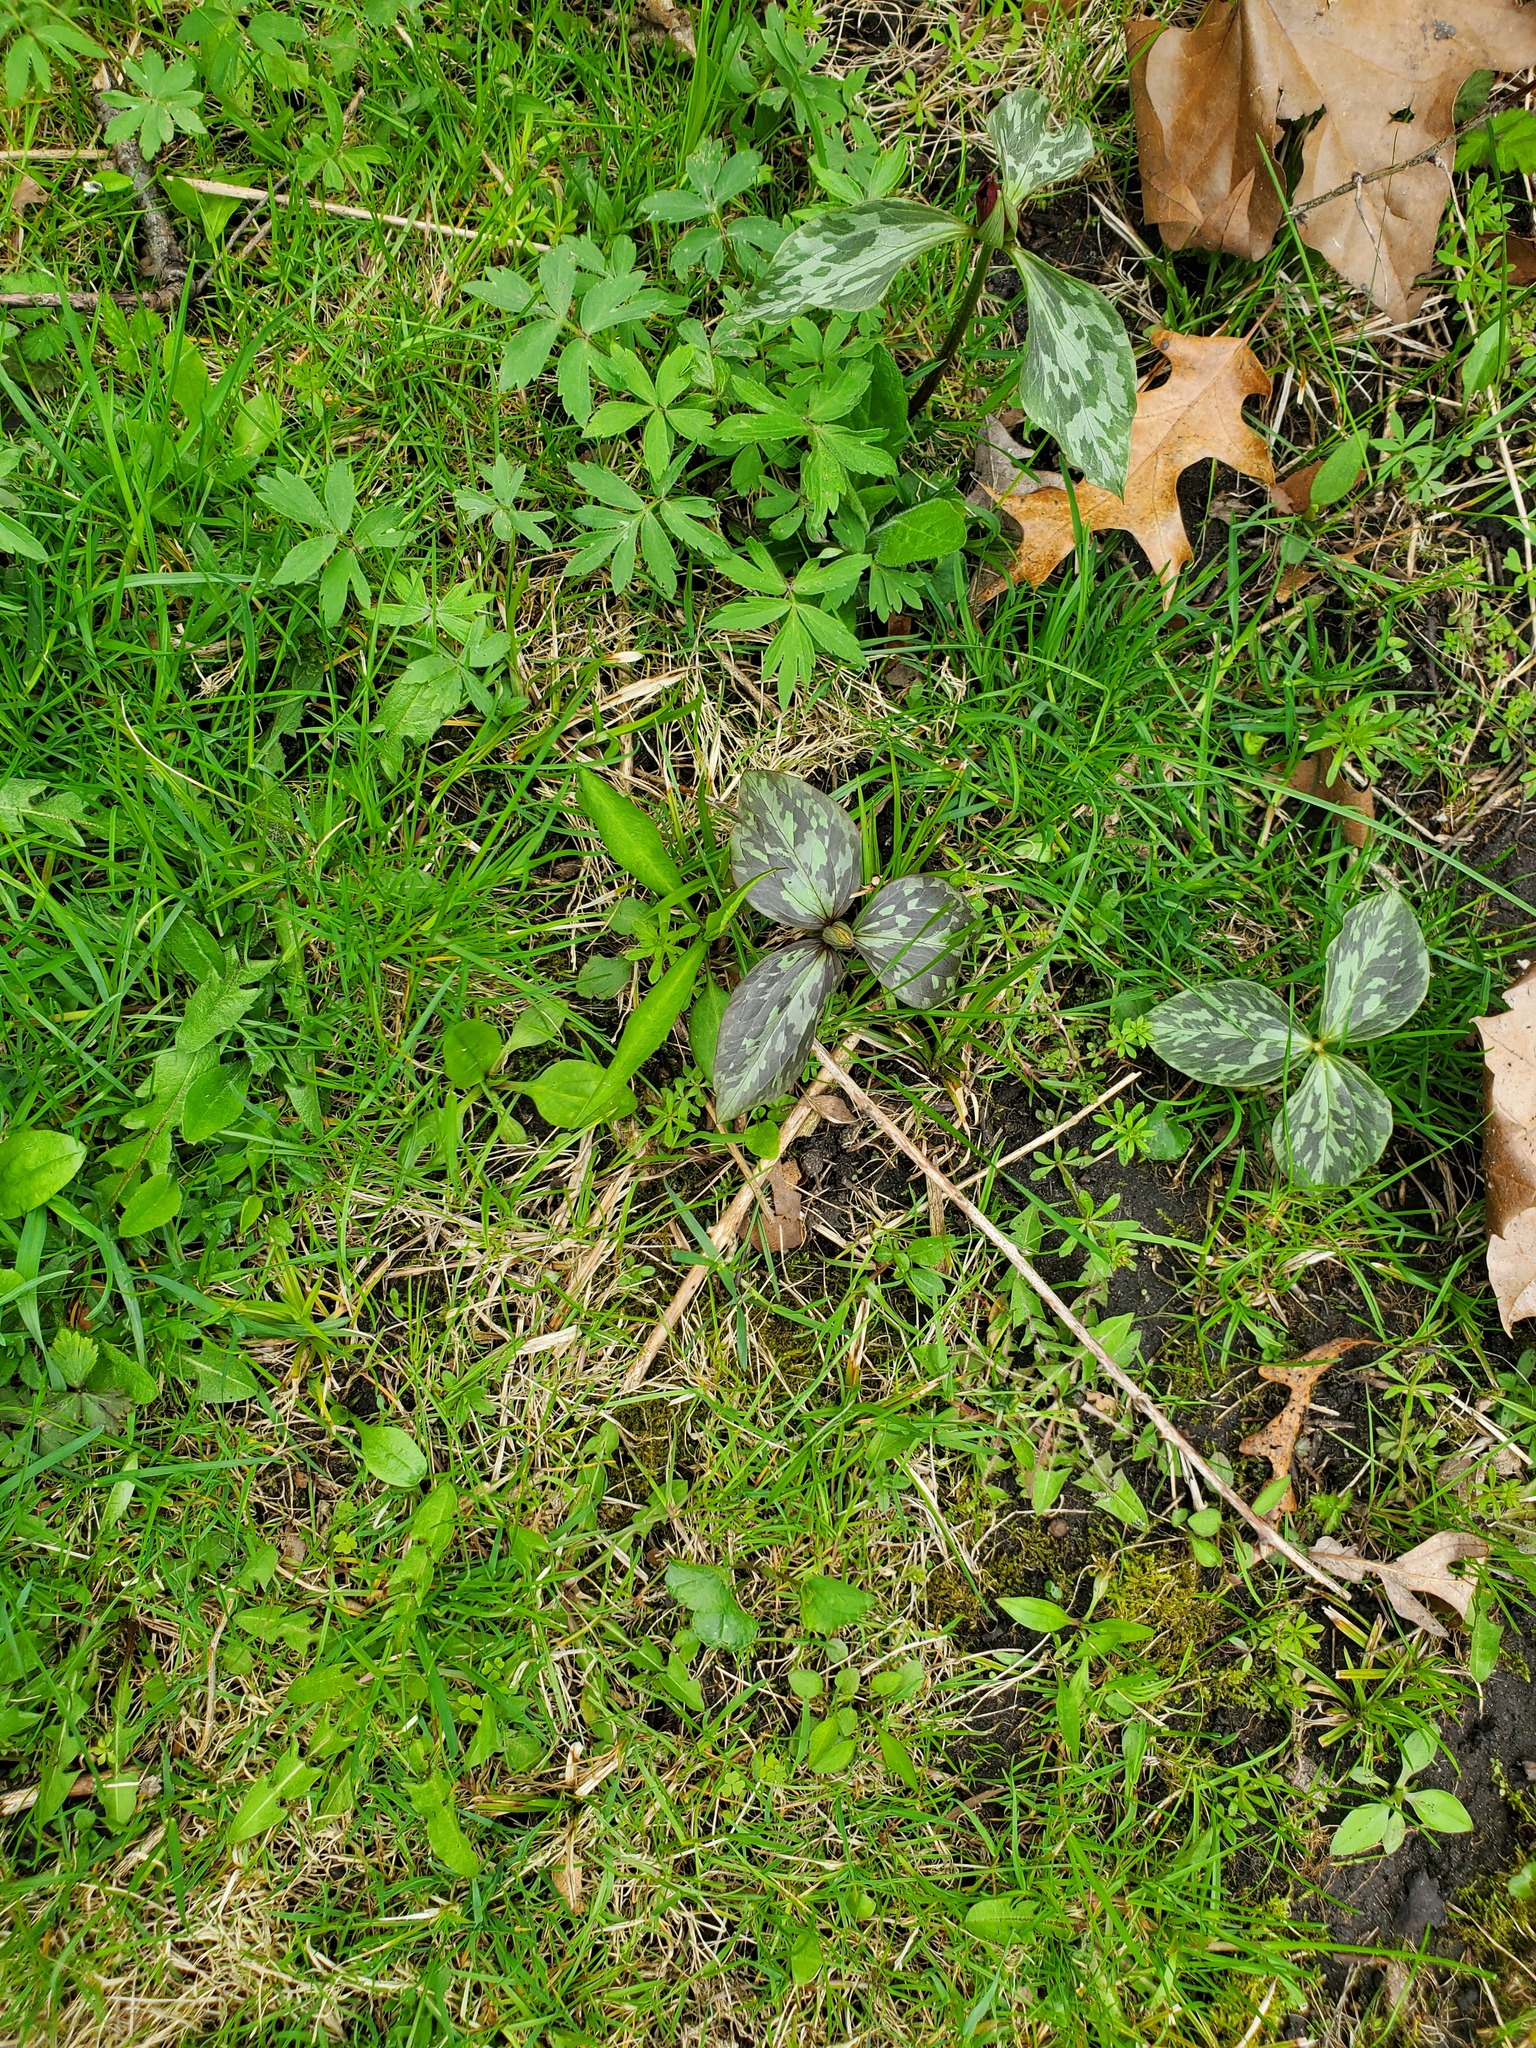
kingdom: Plantae
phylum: Tracheophyta
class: Liliopsida
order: Liliales
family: Melanthiaceae
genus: Trillium
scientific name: Trillium recurvatum
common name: Bloody butcher
